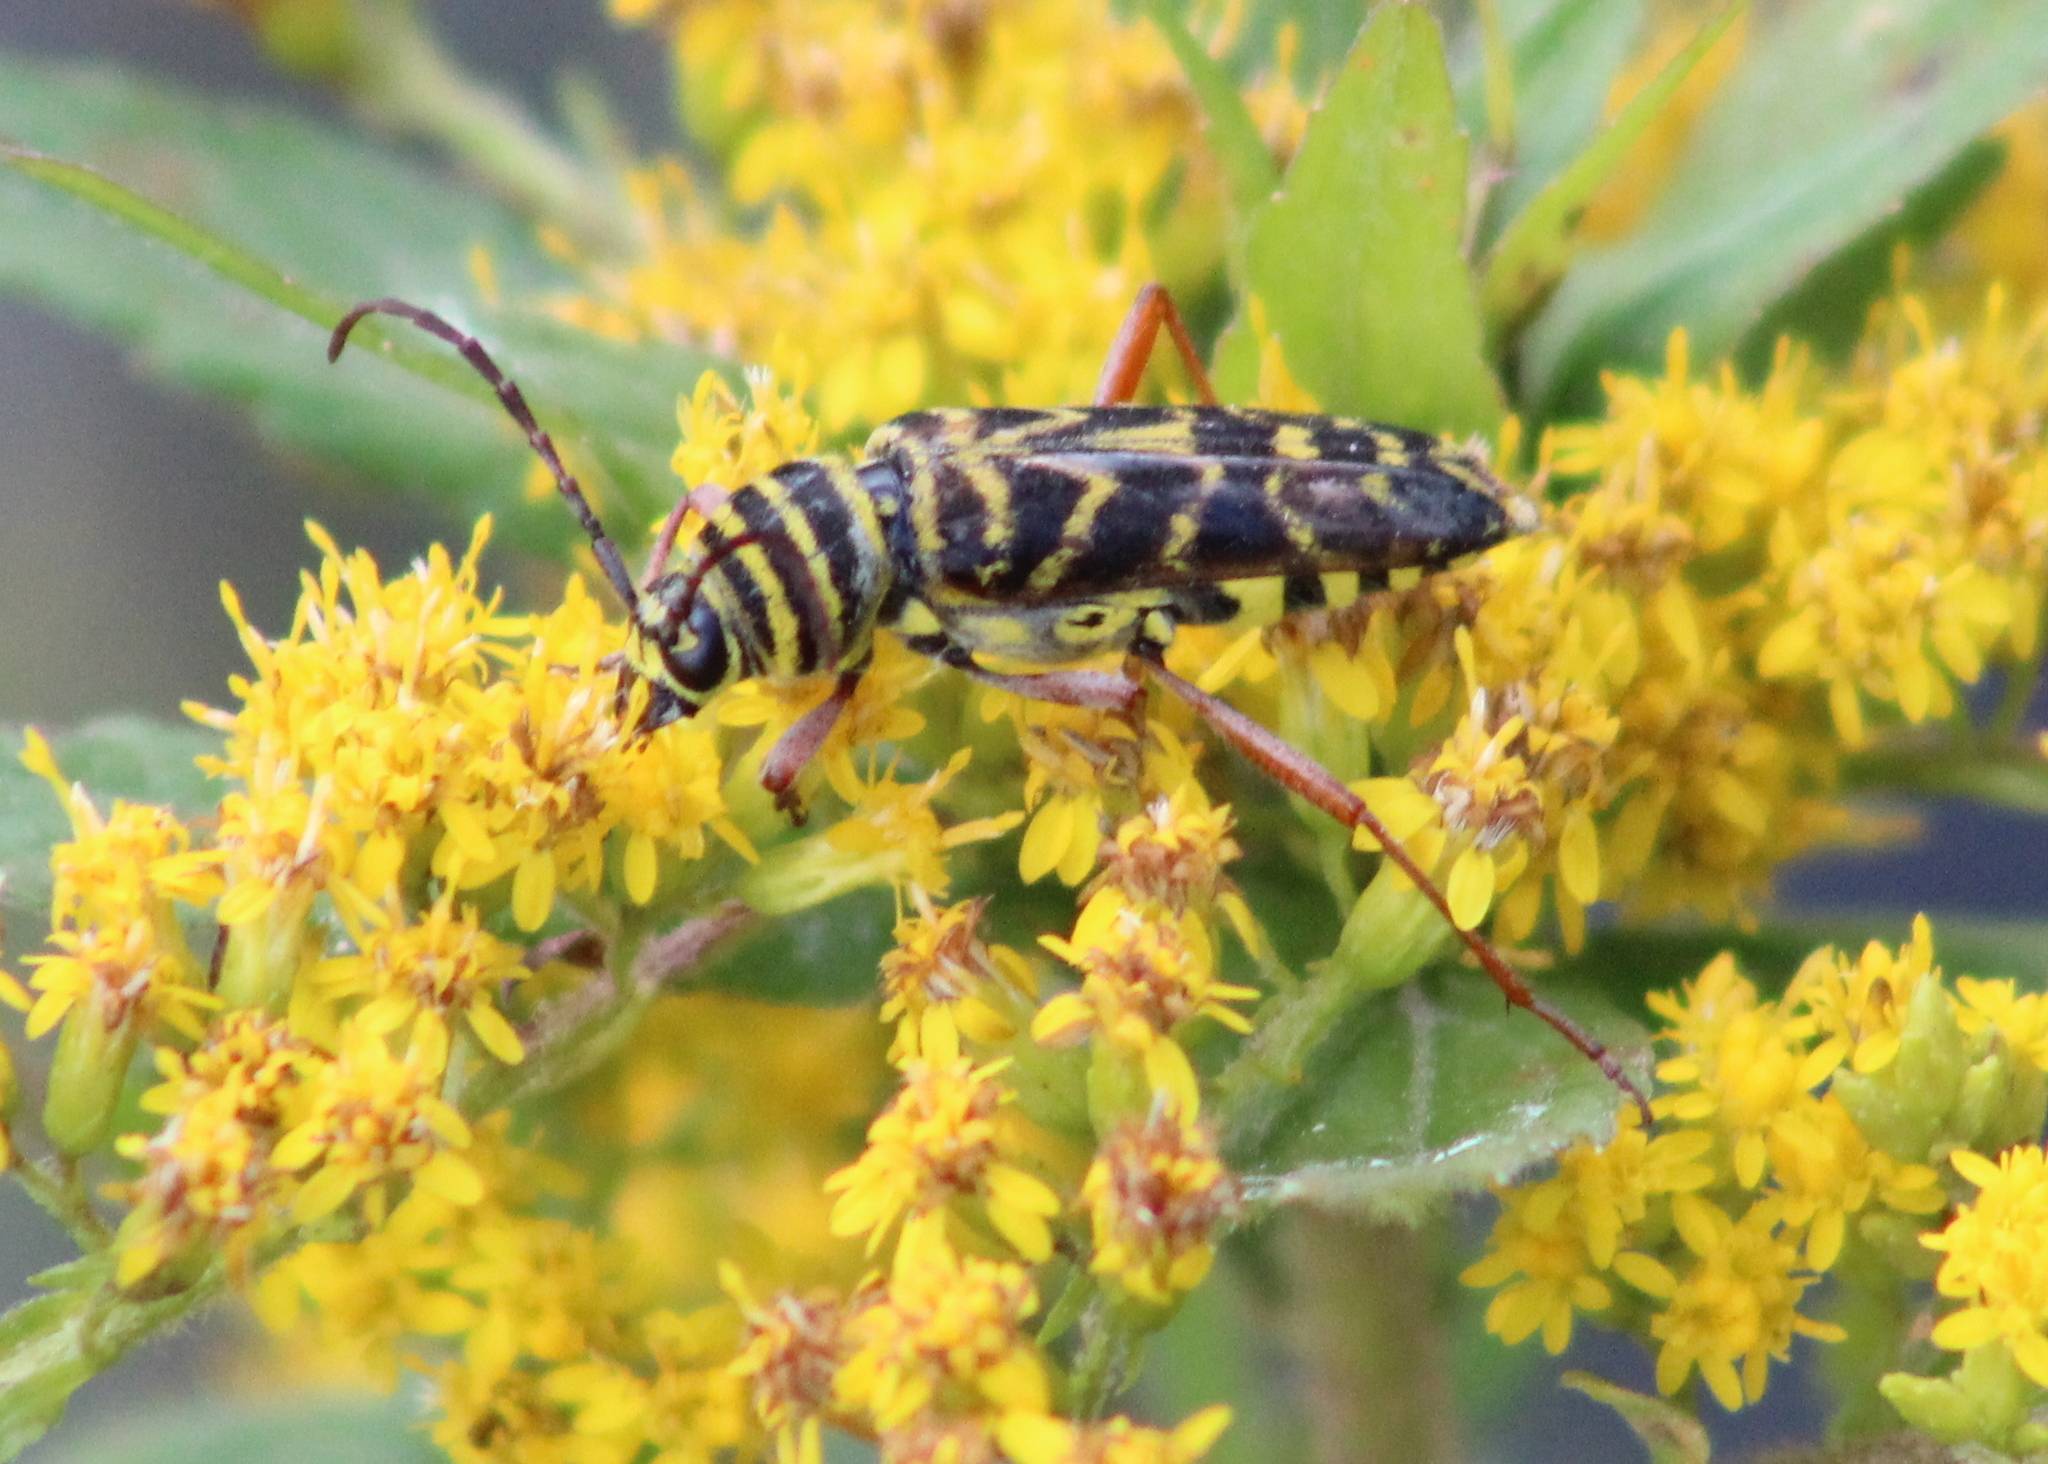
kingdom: Animalia
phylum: Arthropoda
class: Insecta
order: Coleoptera
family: Cerambycidae
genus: Megacyllene
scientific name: Megacyllene robiniae
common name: Locust borer
